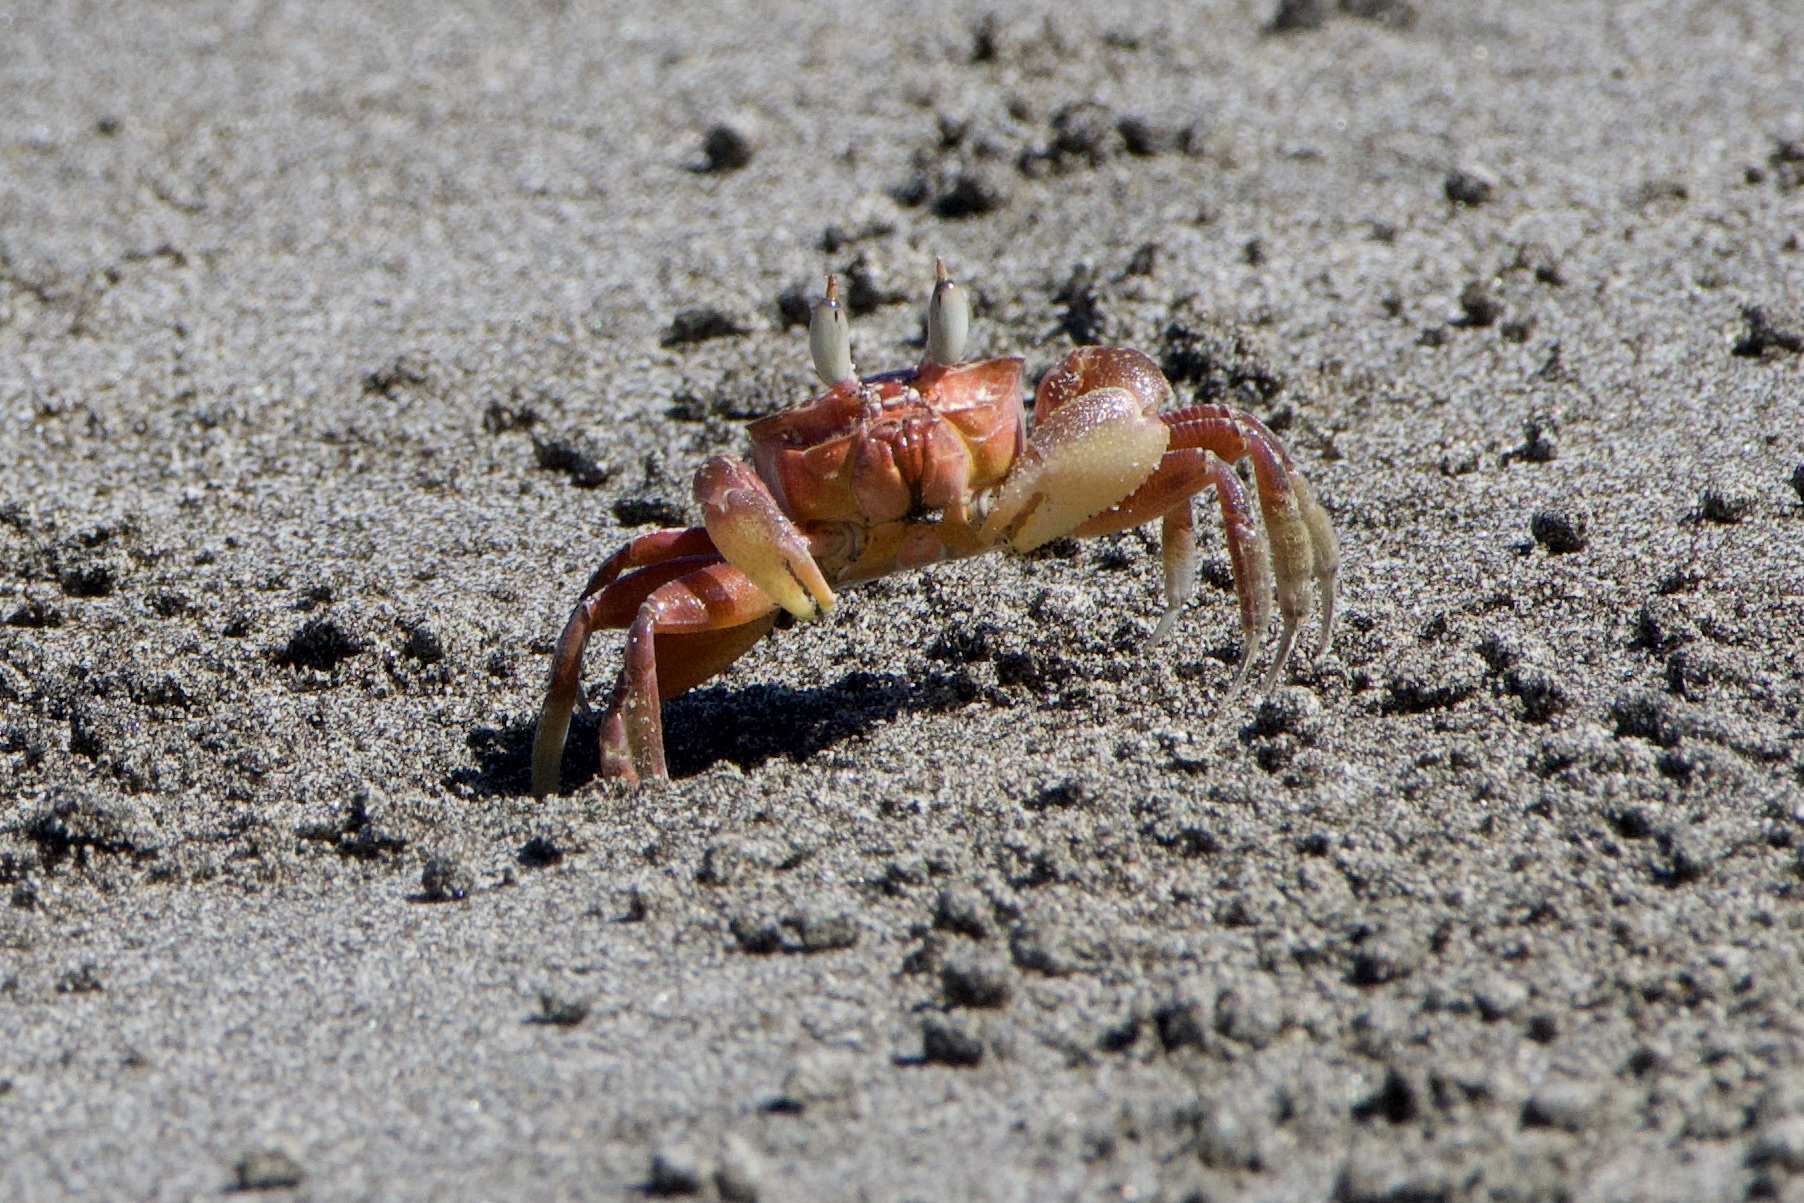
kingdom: Animalia
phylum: Arthropoda
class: Malacostraca
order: Decapoda
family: Ocypodidae
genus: Ocypode
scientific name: Ocypode gaudichaudii
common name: Pacific ghost crab
